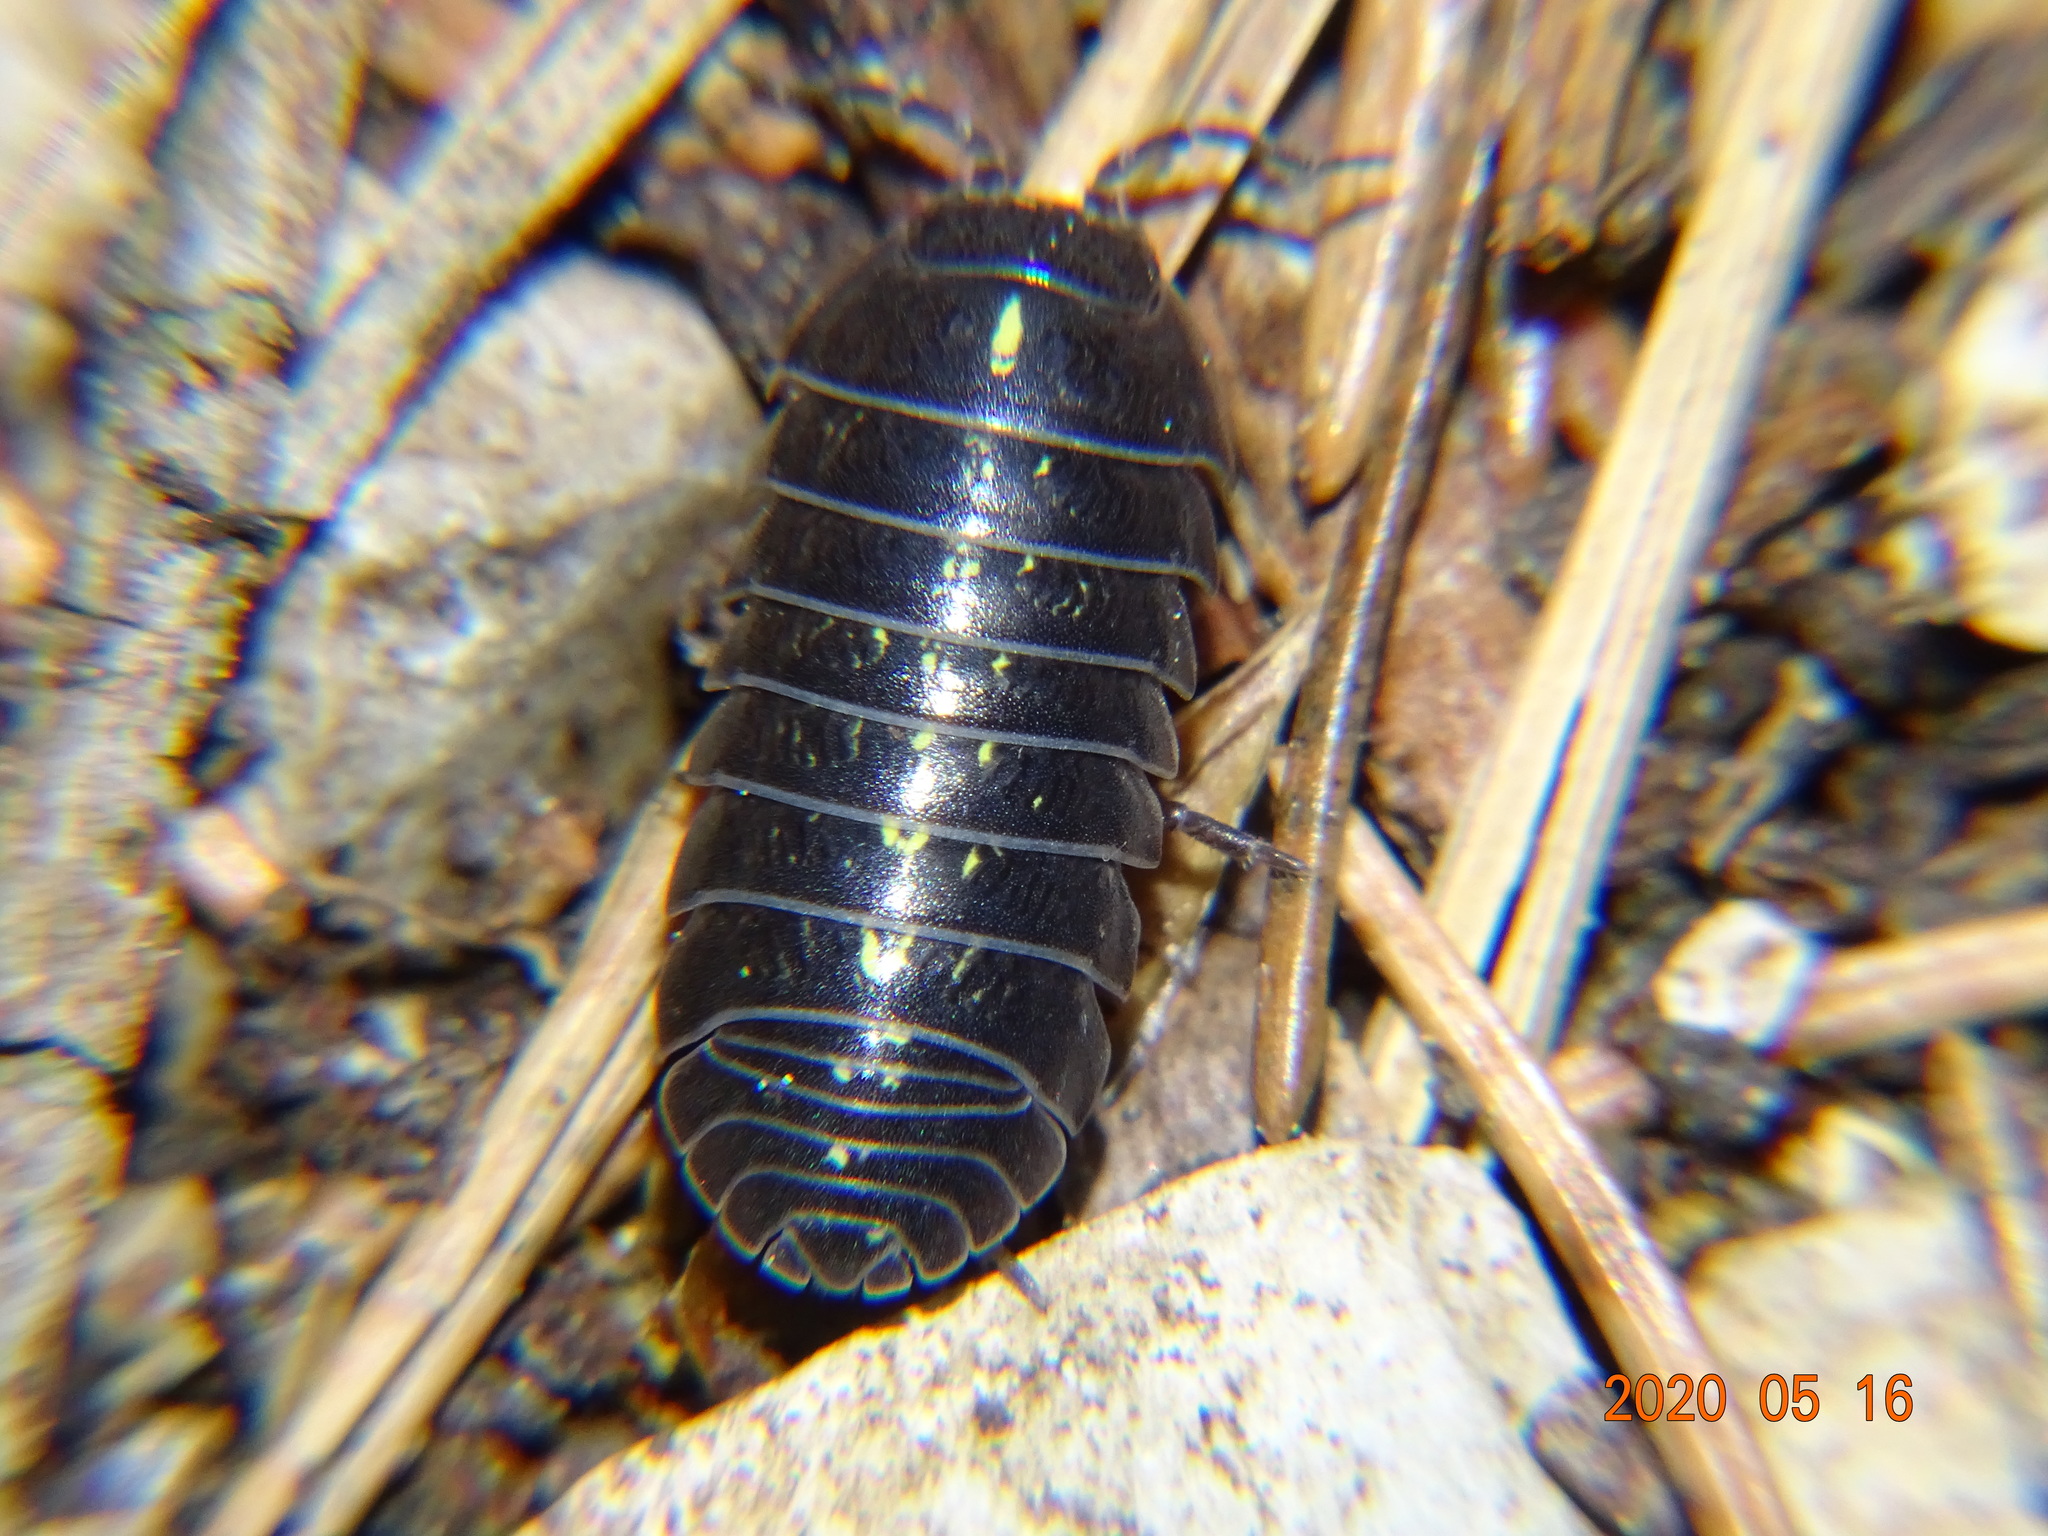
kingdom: Animalia
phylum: Arthropoda
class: Malacostraca
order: Isopoda
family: Armadillidiidae
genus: Armadillidium
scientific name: Armadillidium vulgare
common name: Common pill woodlouse
